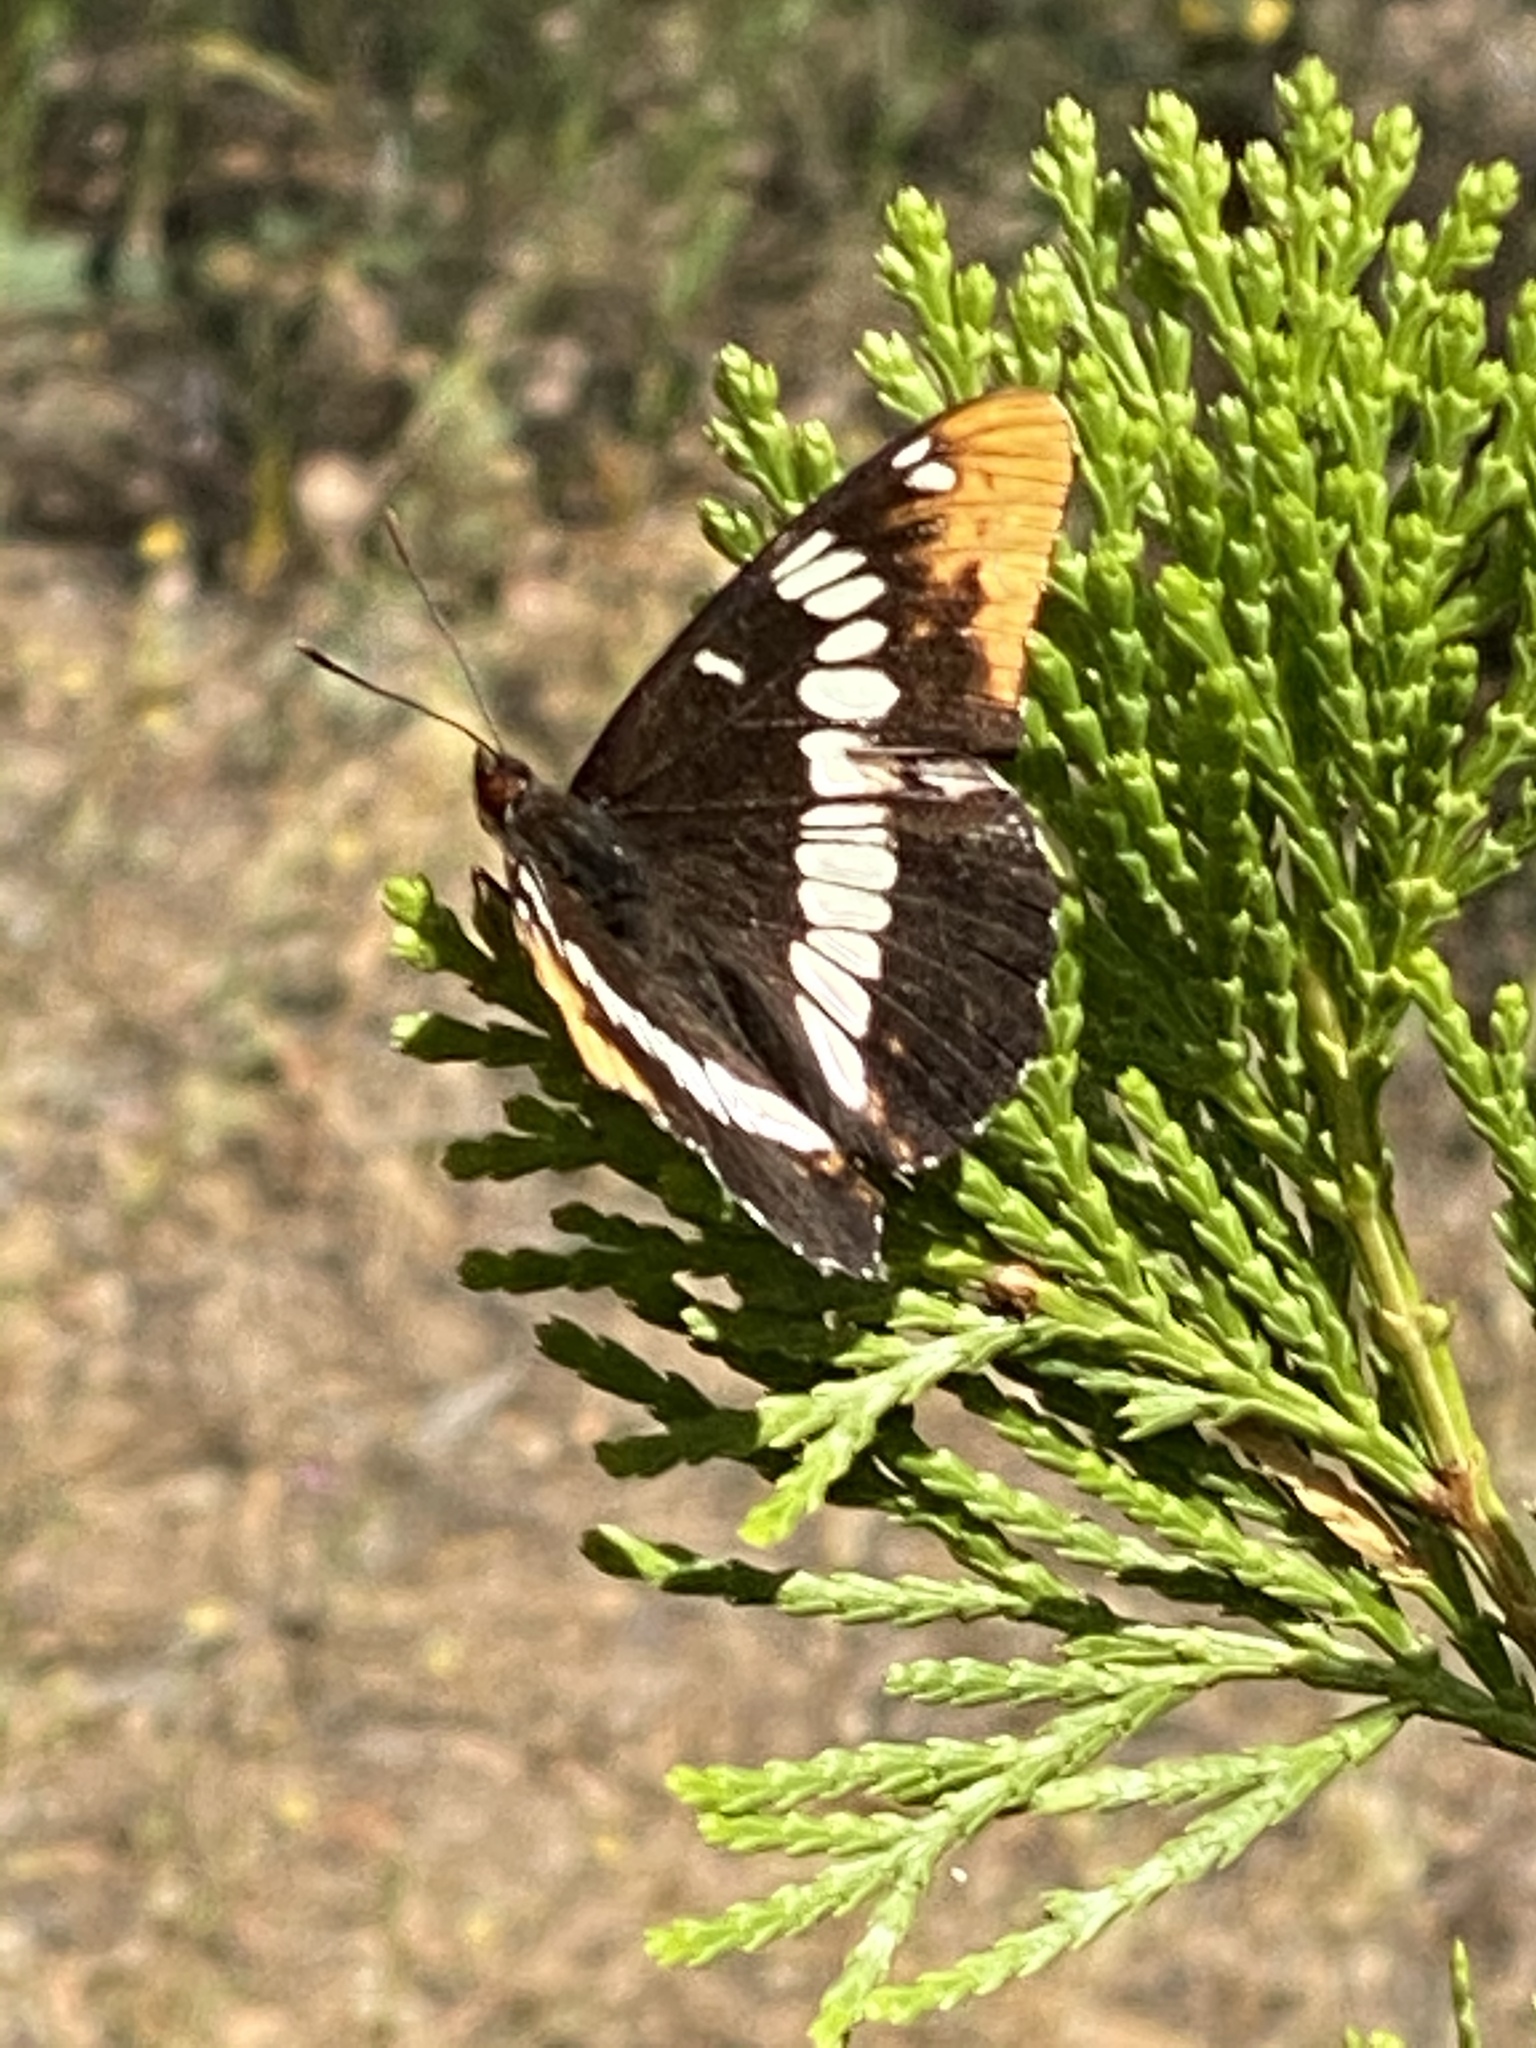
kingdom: Animalia
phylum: Arthropoda
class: Insecta
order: Lepidoptera
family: Nymphalidae
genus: Limenitis
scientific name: Limenitis lorquini
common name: Lorquin's admiral
